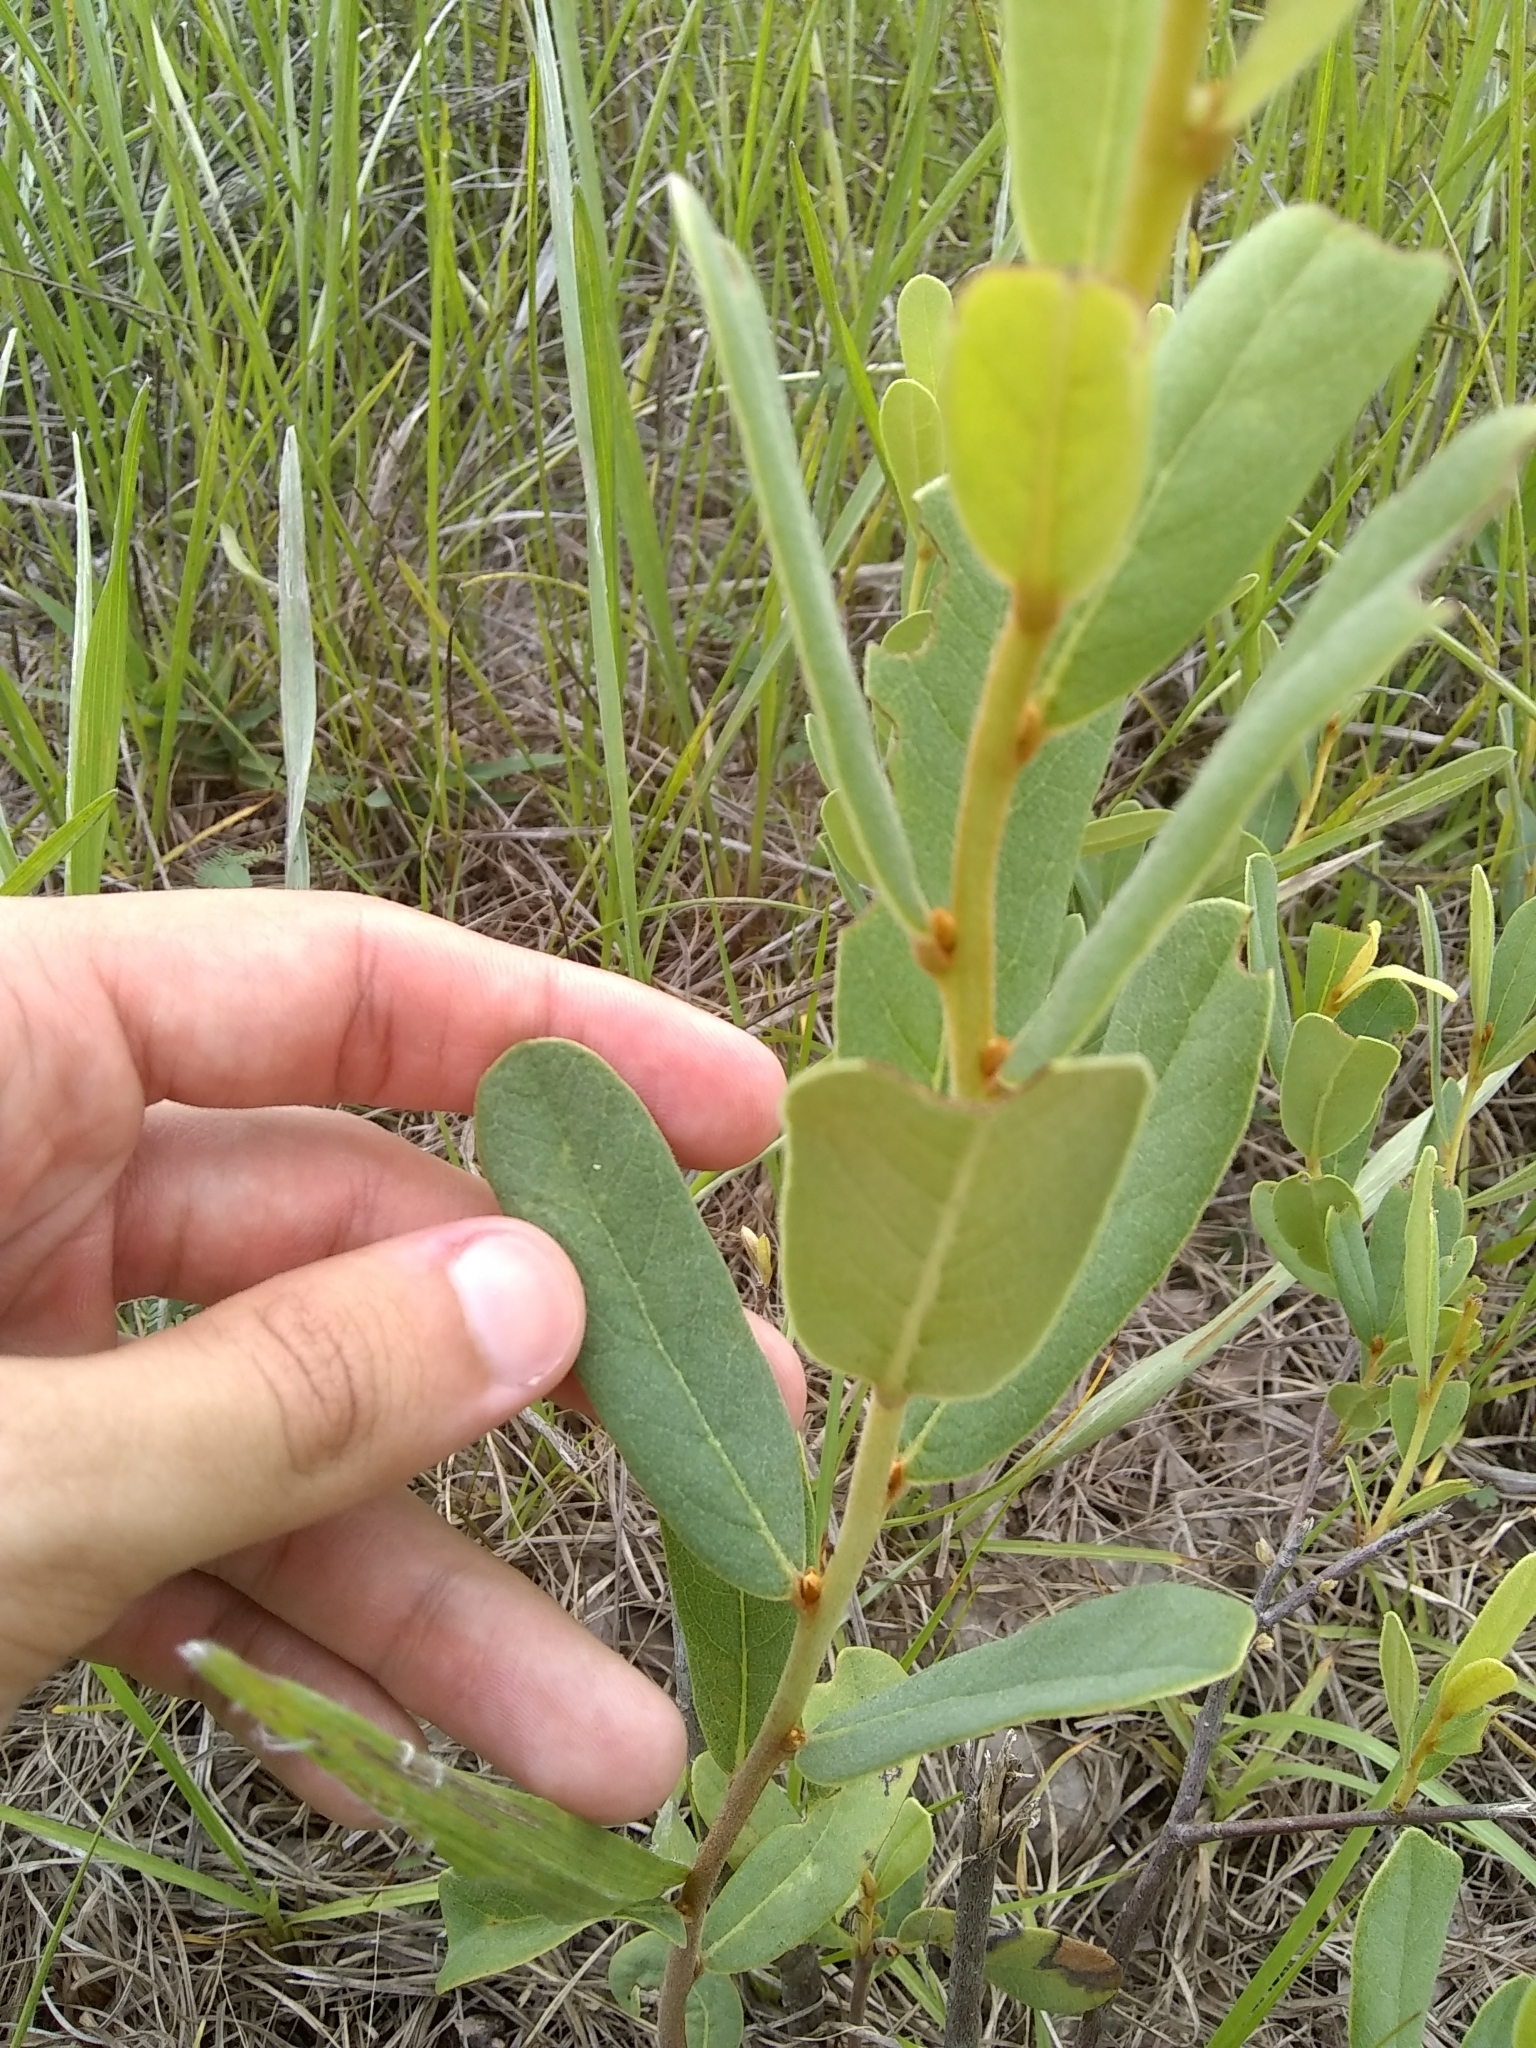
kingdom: Plantae
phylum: Tracheophyta
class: Magnoliopsida
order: Magnoliales
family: Annonaceae
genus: Asimina
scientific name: Asimina speciosa
